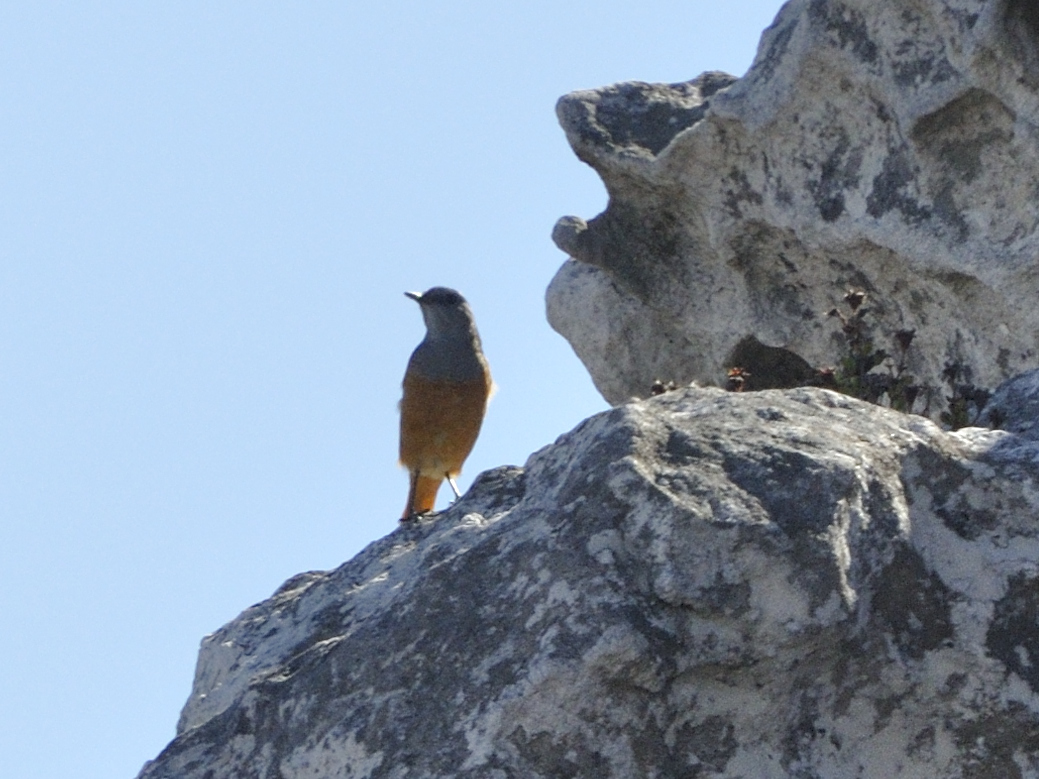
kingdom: Animalia
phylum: Chordata
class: Aves
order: Passeriformes
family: Muscicapidae
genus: Monticola
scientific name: Monticola explorator
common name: Sentinel rock thrush
